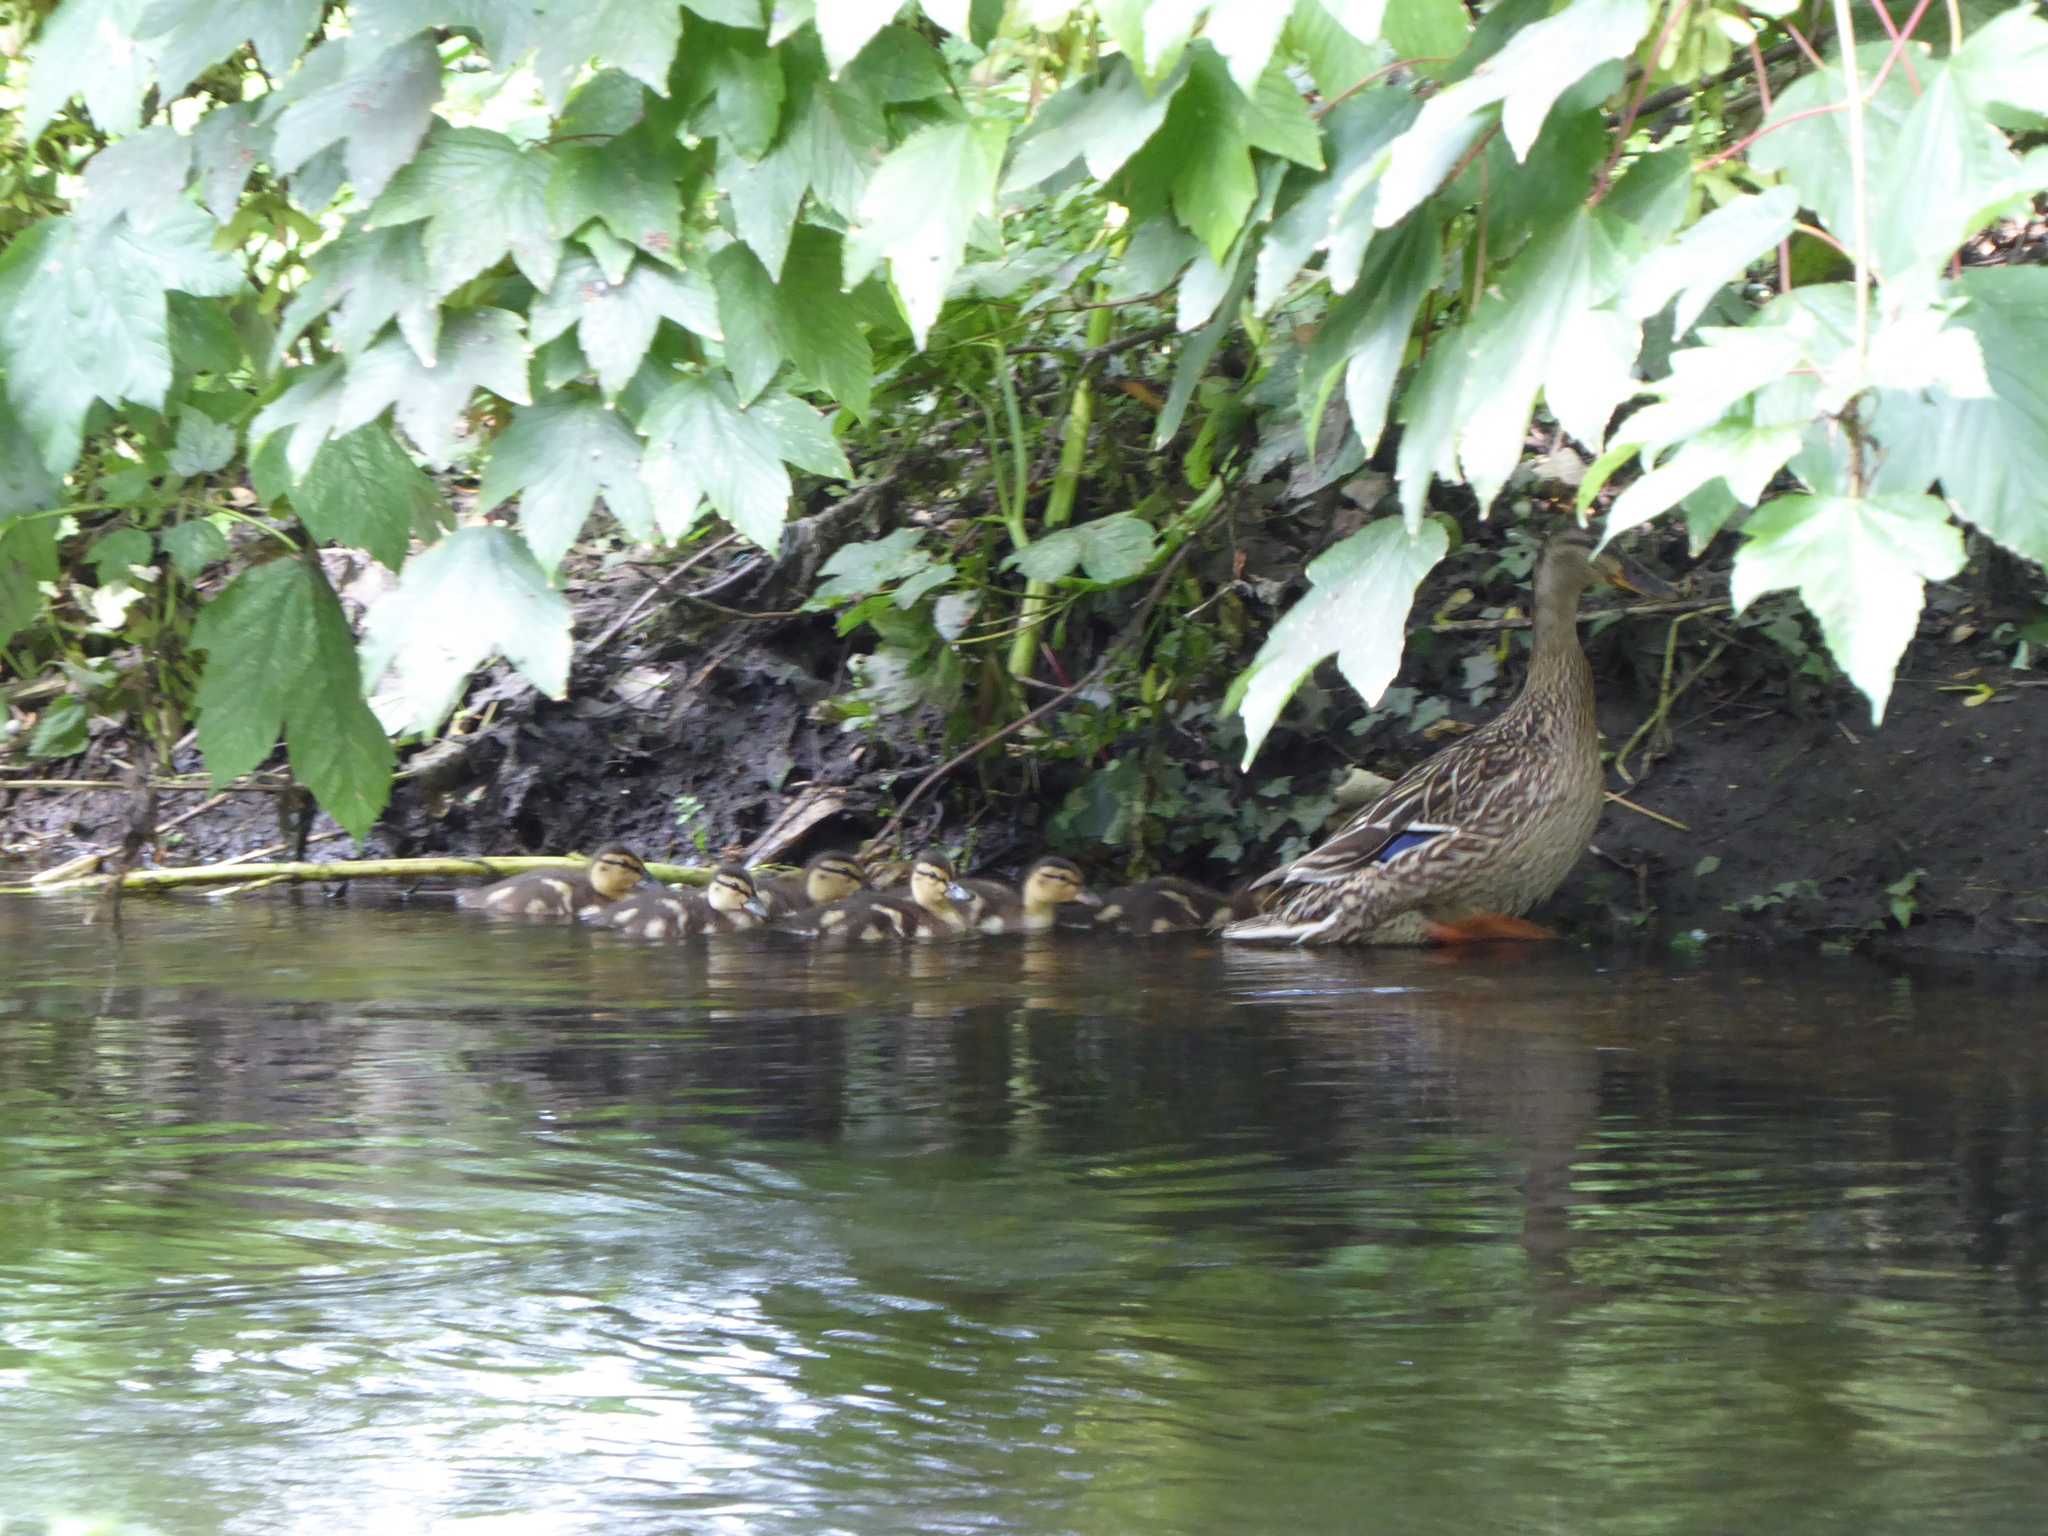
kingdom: Animalia
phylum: Chordata
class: Aves
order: Anseriformes
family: Anatidae
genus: Anas
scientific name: Anas platyrhynchos
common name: Mallard
